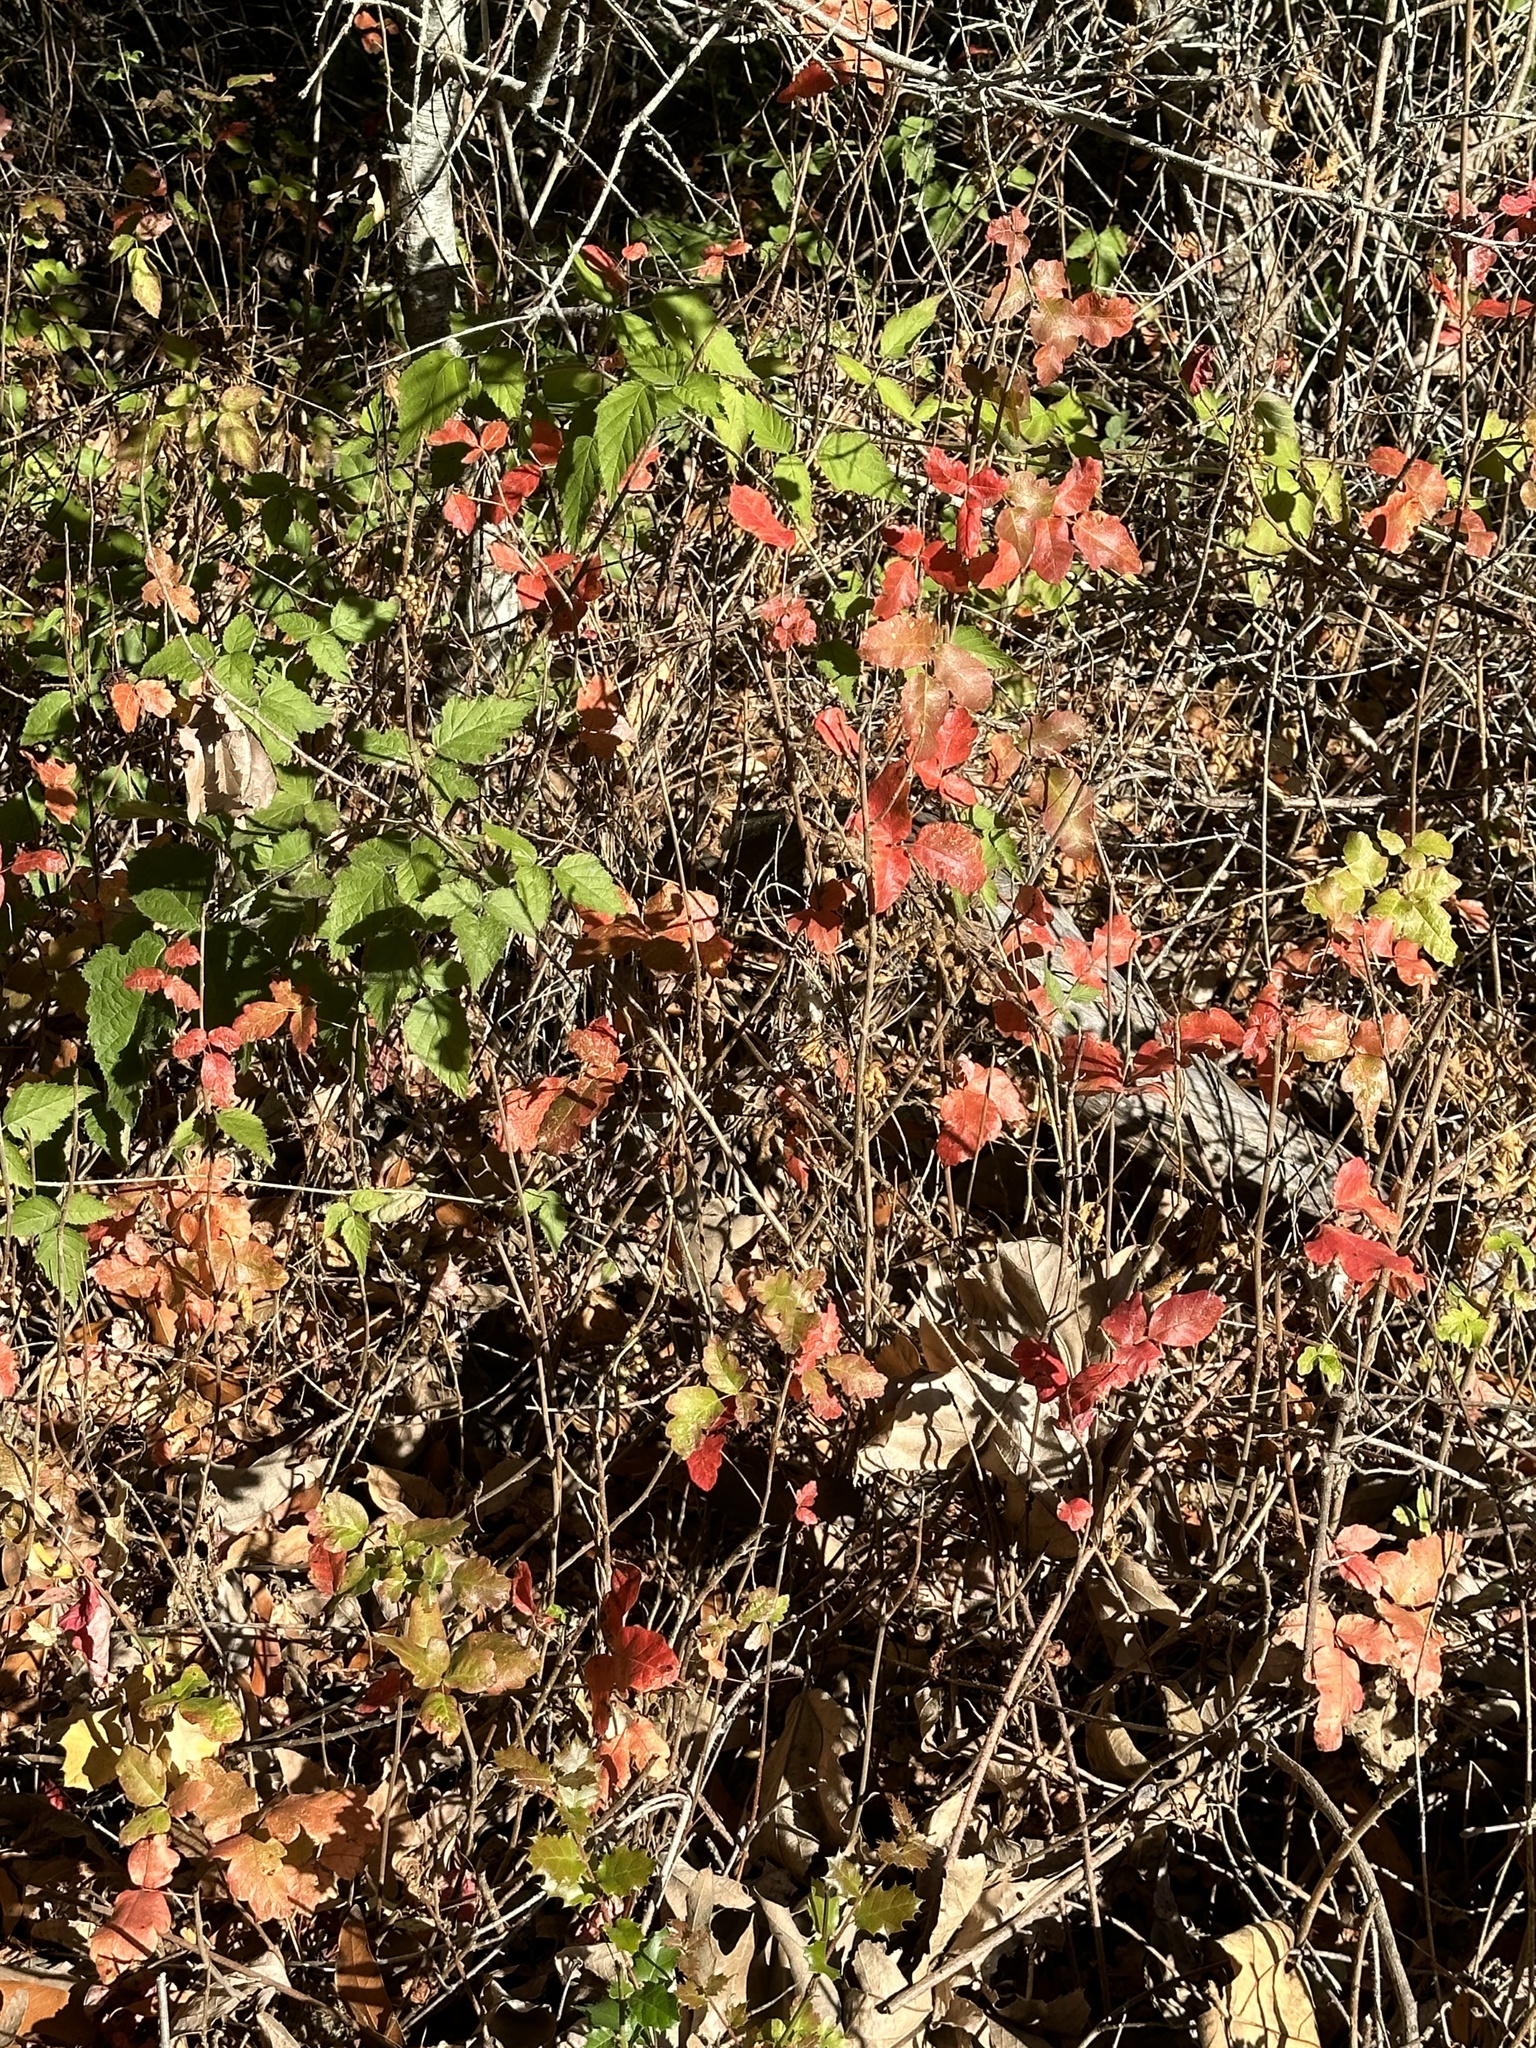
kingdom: Plantae
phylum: Tracheophyta
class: Magnoliopsida
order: Sapindales
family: Anacardiaceae
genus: Toxicodendron
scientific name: Toxicodendron diversilobum
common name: Pacific poison-oak
